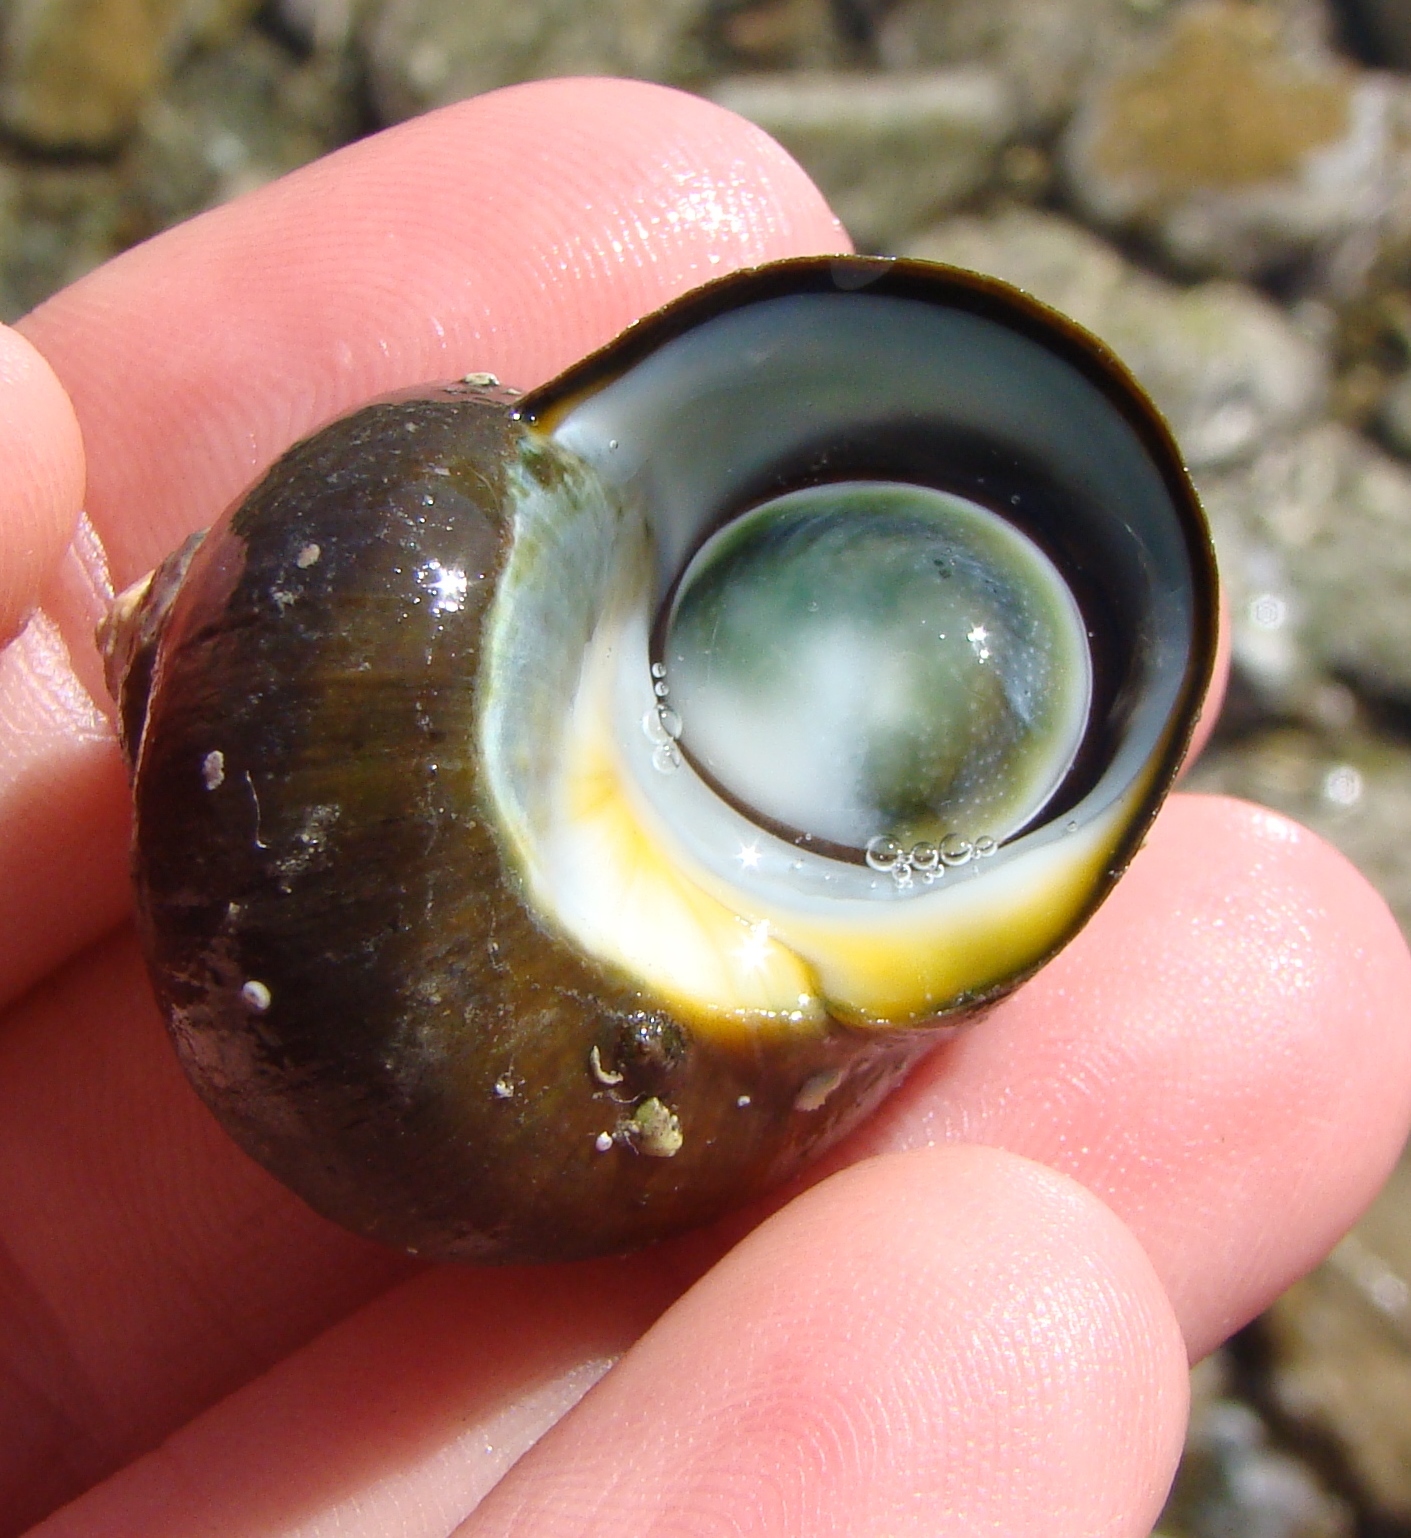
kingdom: Animalia
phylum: Mollusca
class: Gastropoda
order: Trochida
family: Turbinidae
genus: Lunella
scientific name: Lunella smaragda
